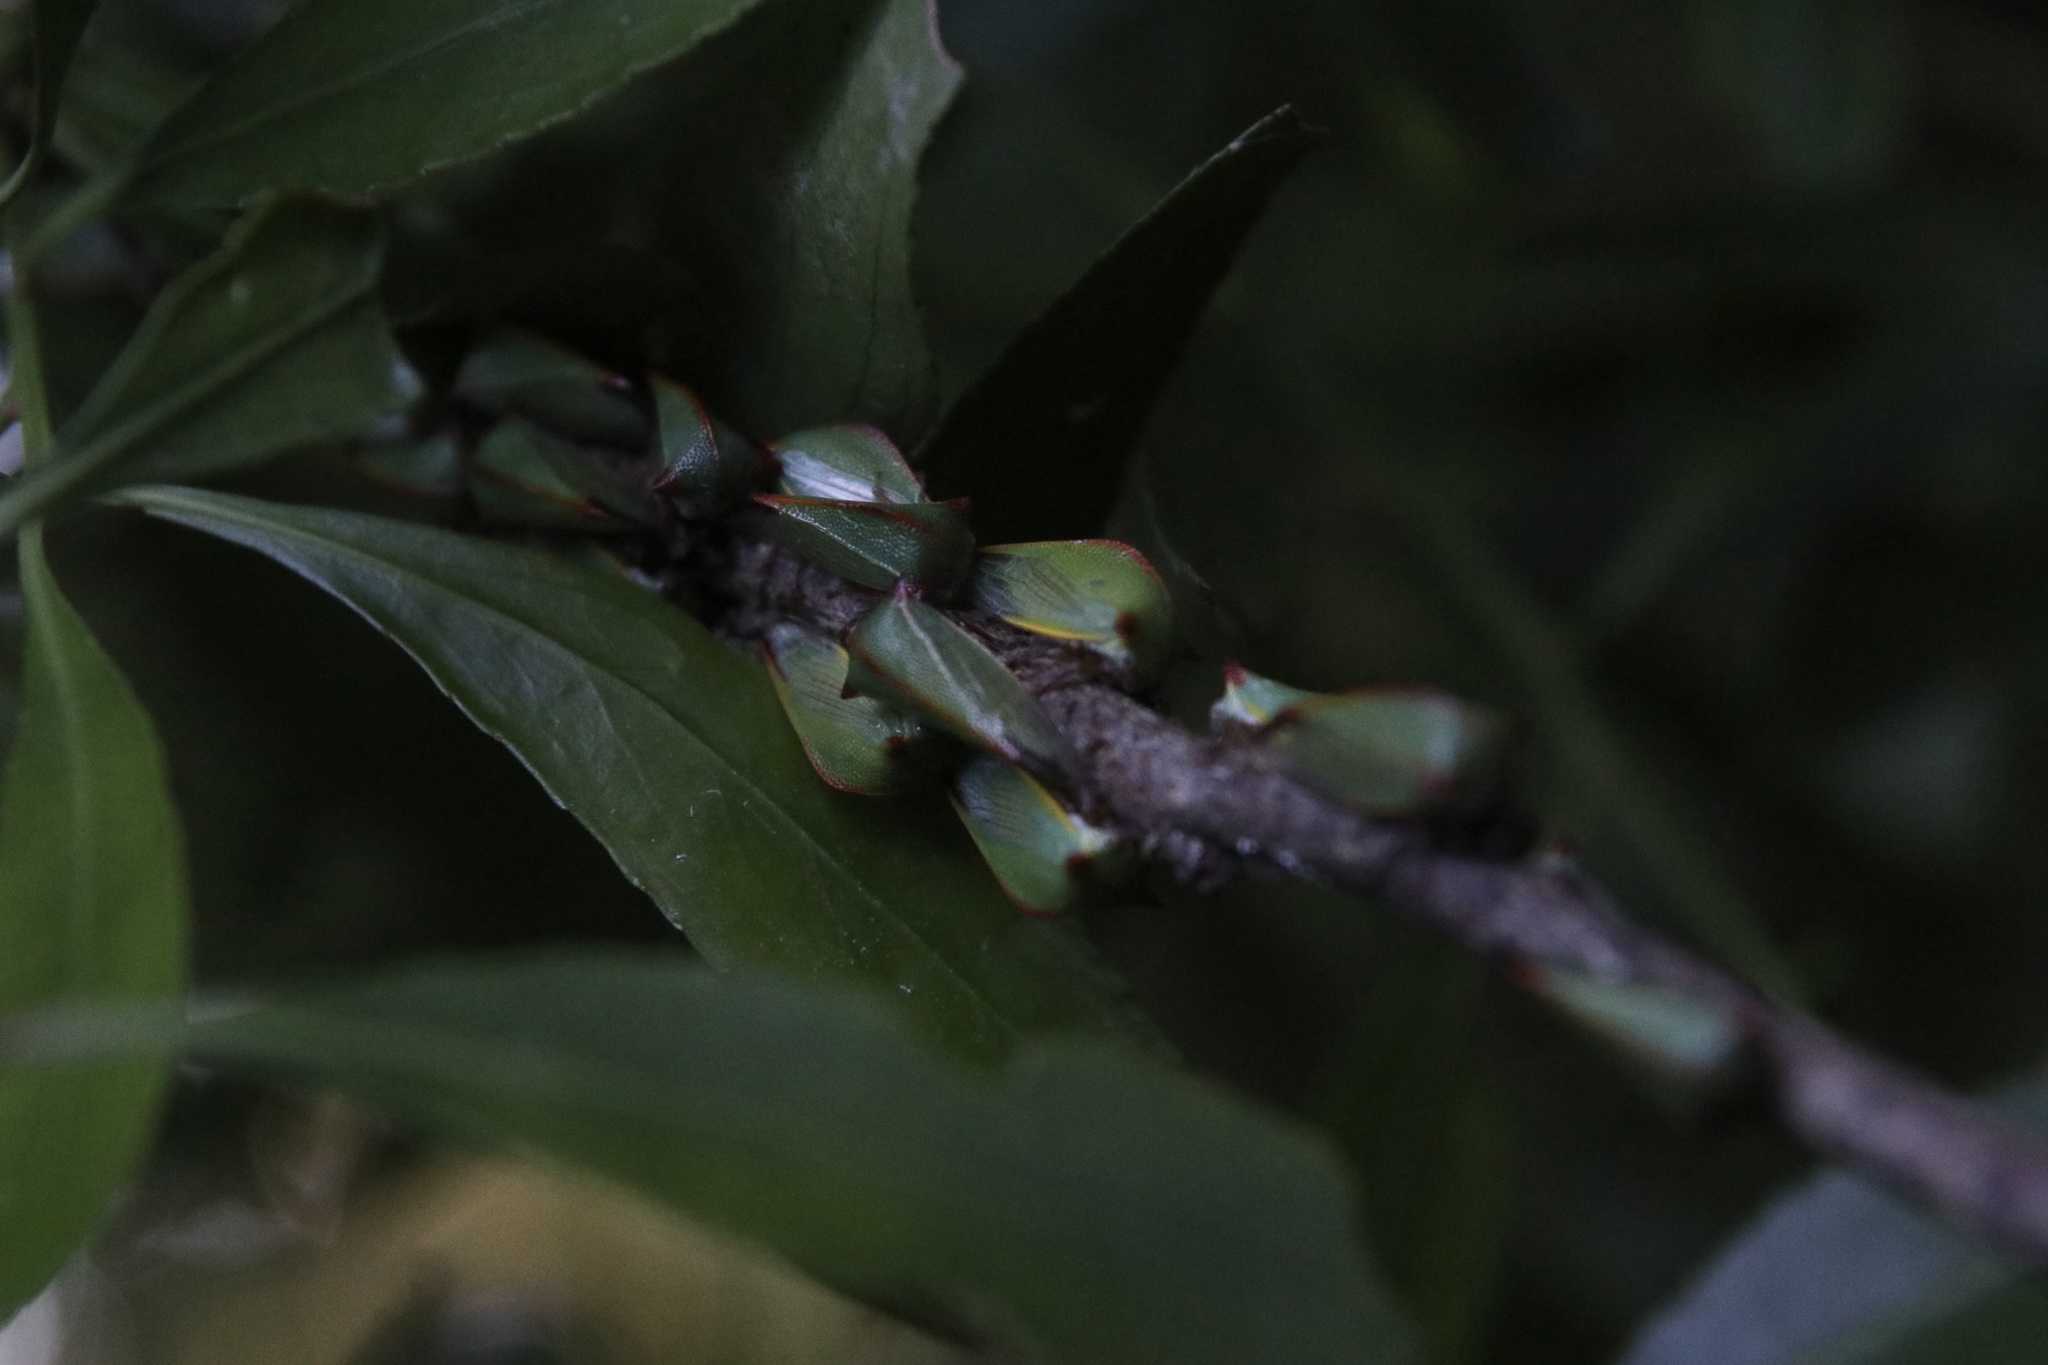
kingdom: Animalia
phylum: Arthropoda
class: Insecta
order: Hemiptera
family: Membracidae
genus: Alchisme
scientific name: Alchisme rubrocostata
